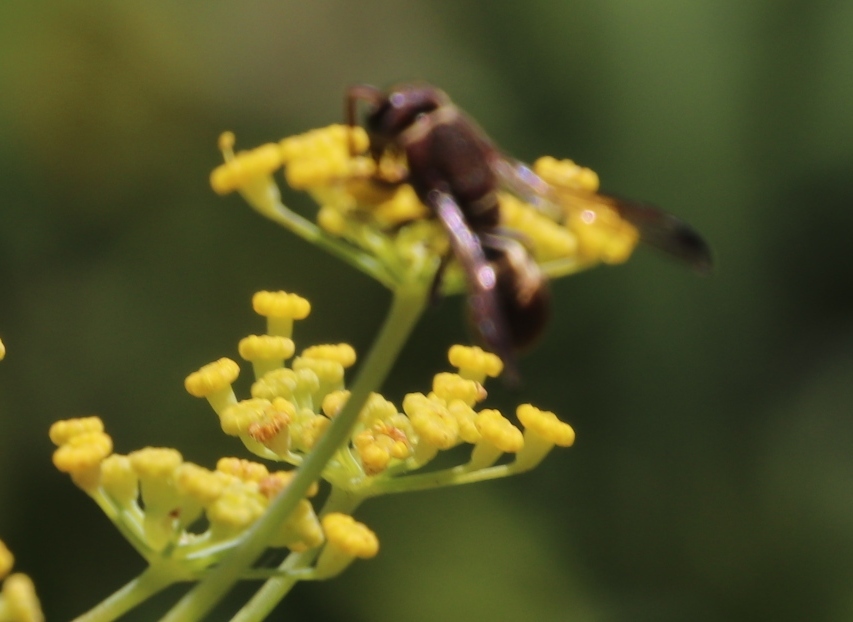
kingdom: Plantae
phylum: Tracheophyta
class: Magnoliopsida
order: Apiales
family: Apiaceae
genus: Foeniculum
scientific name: Foeniculum vulgare
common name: Fennel
